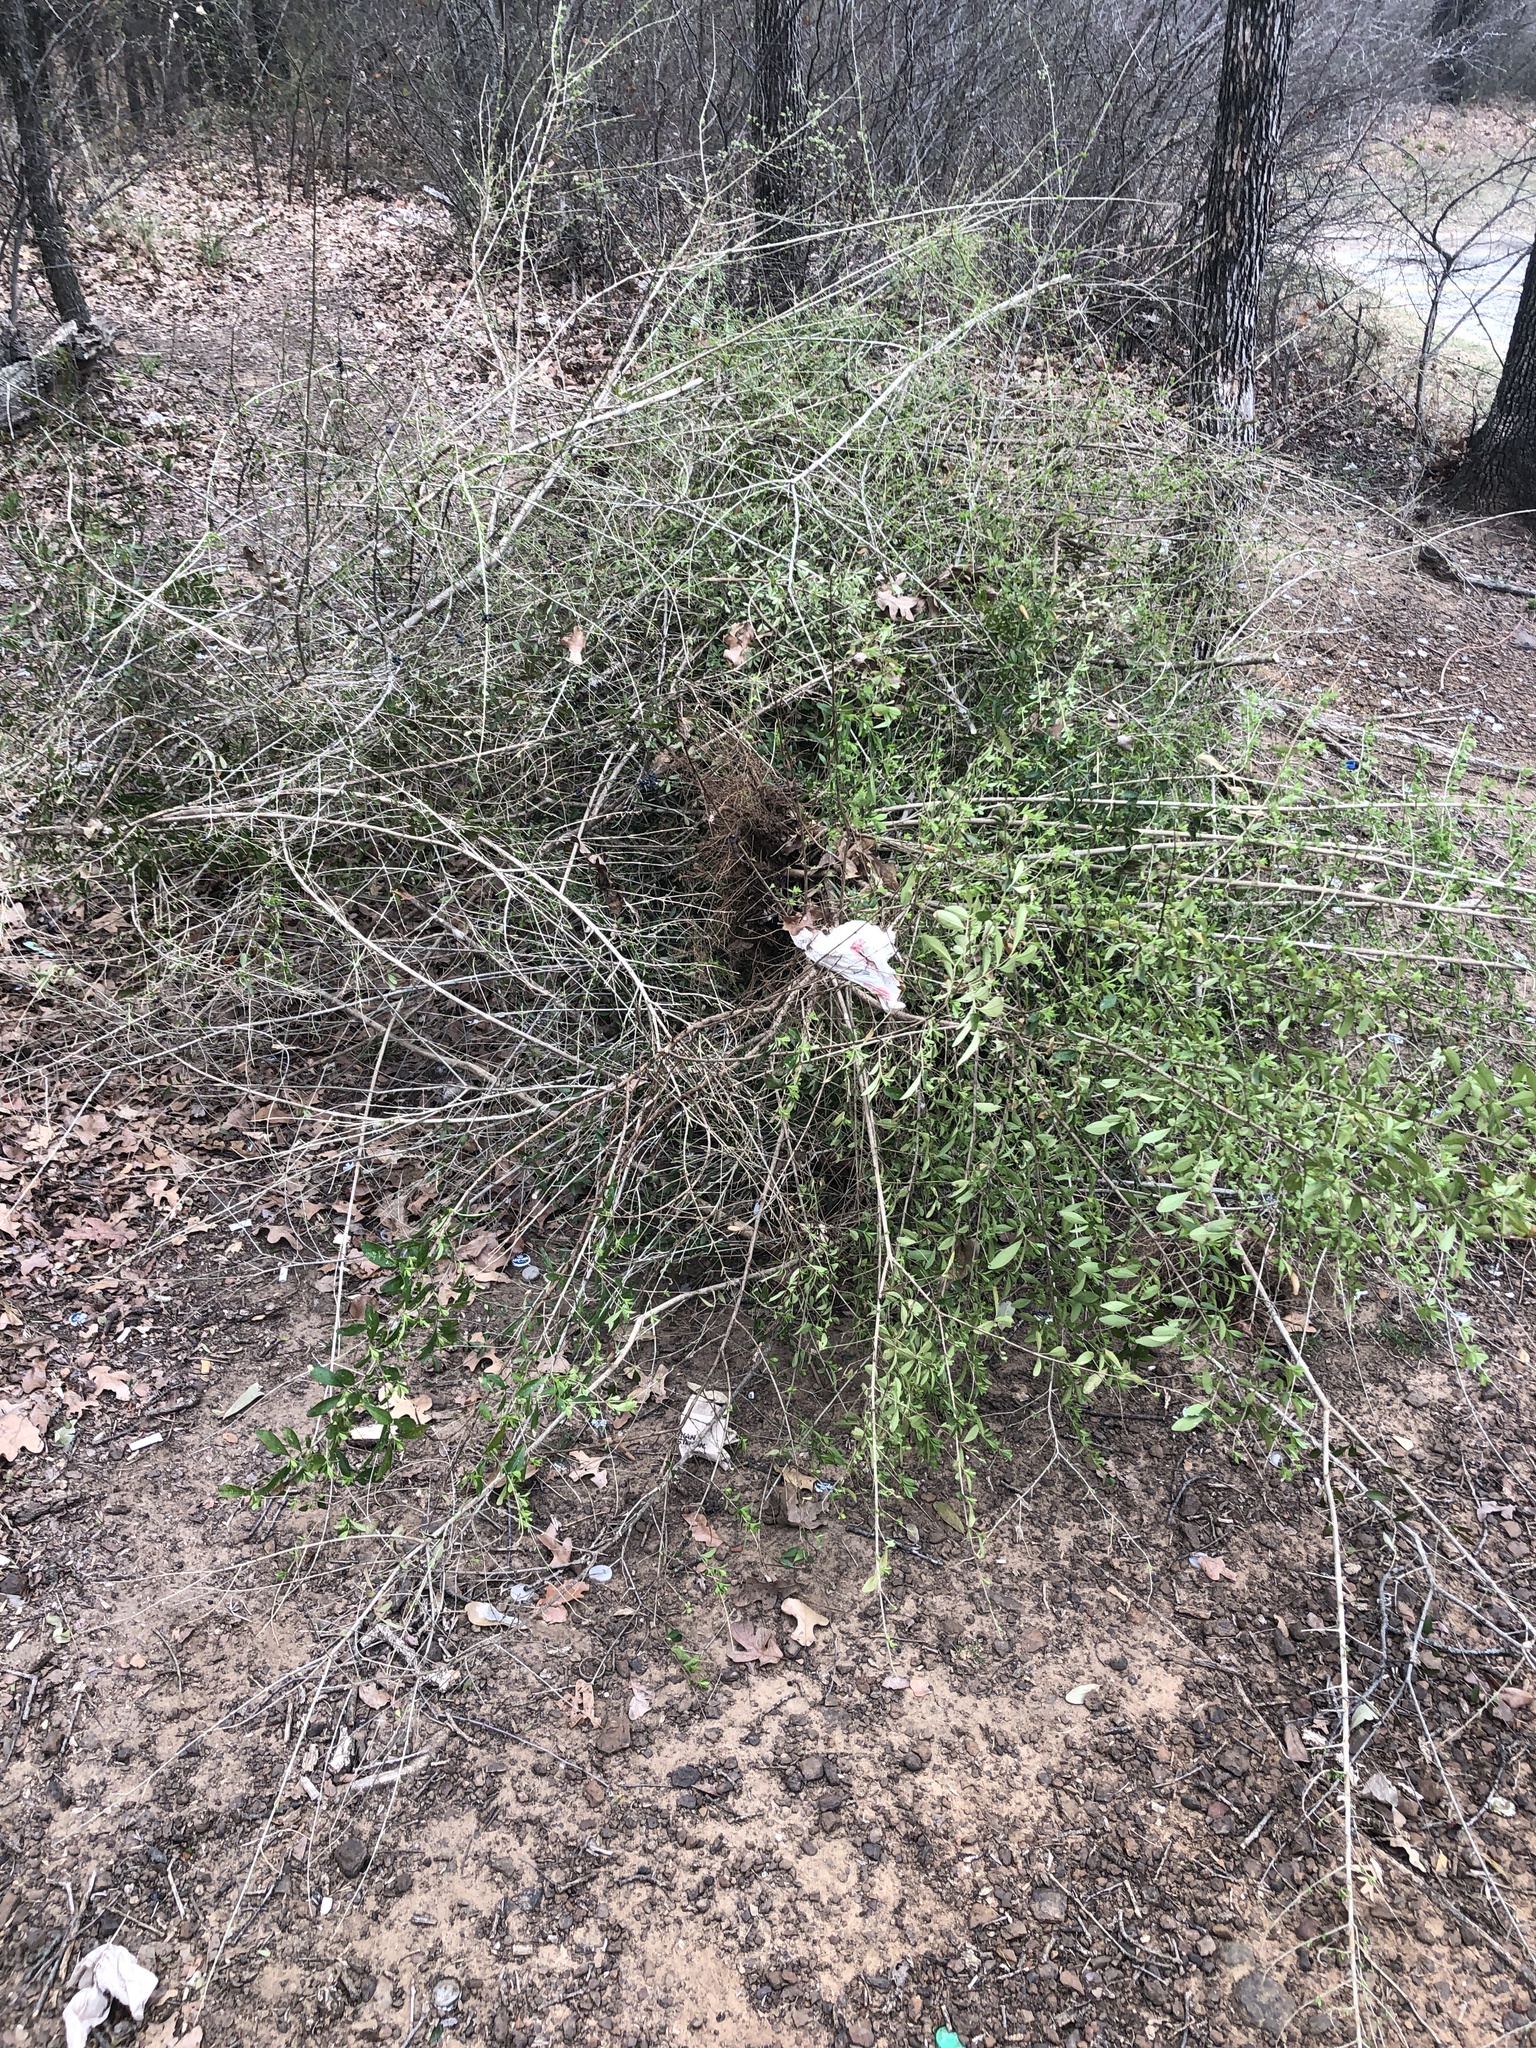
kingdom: Plantae
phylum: Tracheophyta
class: Magnoliopsida
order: Lamiales
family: Oleaceae
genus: Ligustrum
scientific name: Ligustrum quihoui
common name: Waxyleaf privet
